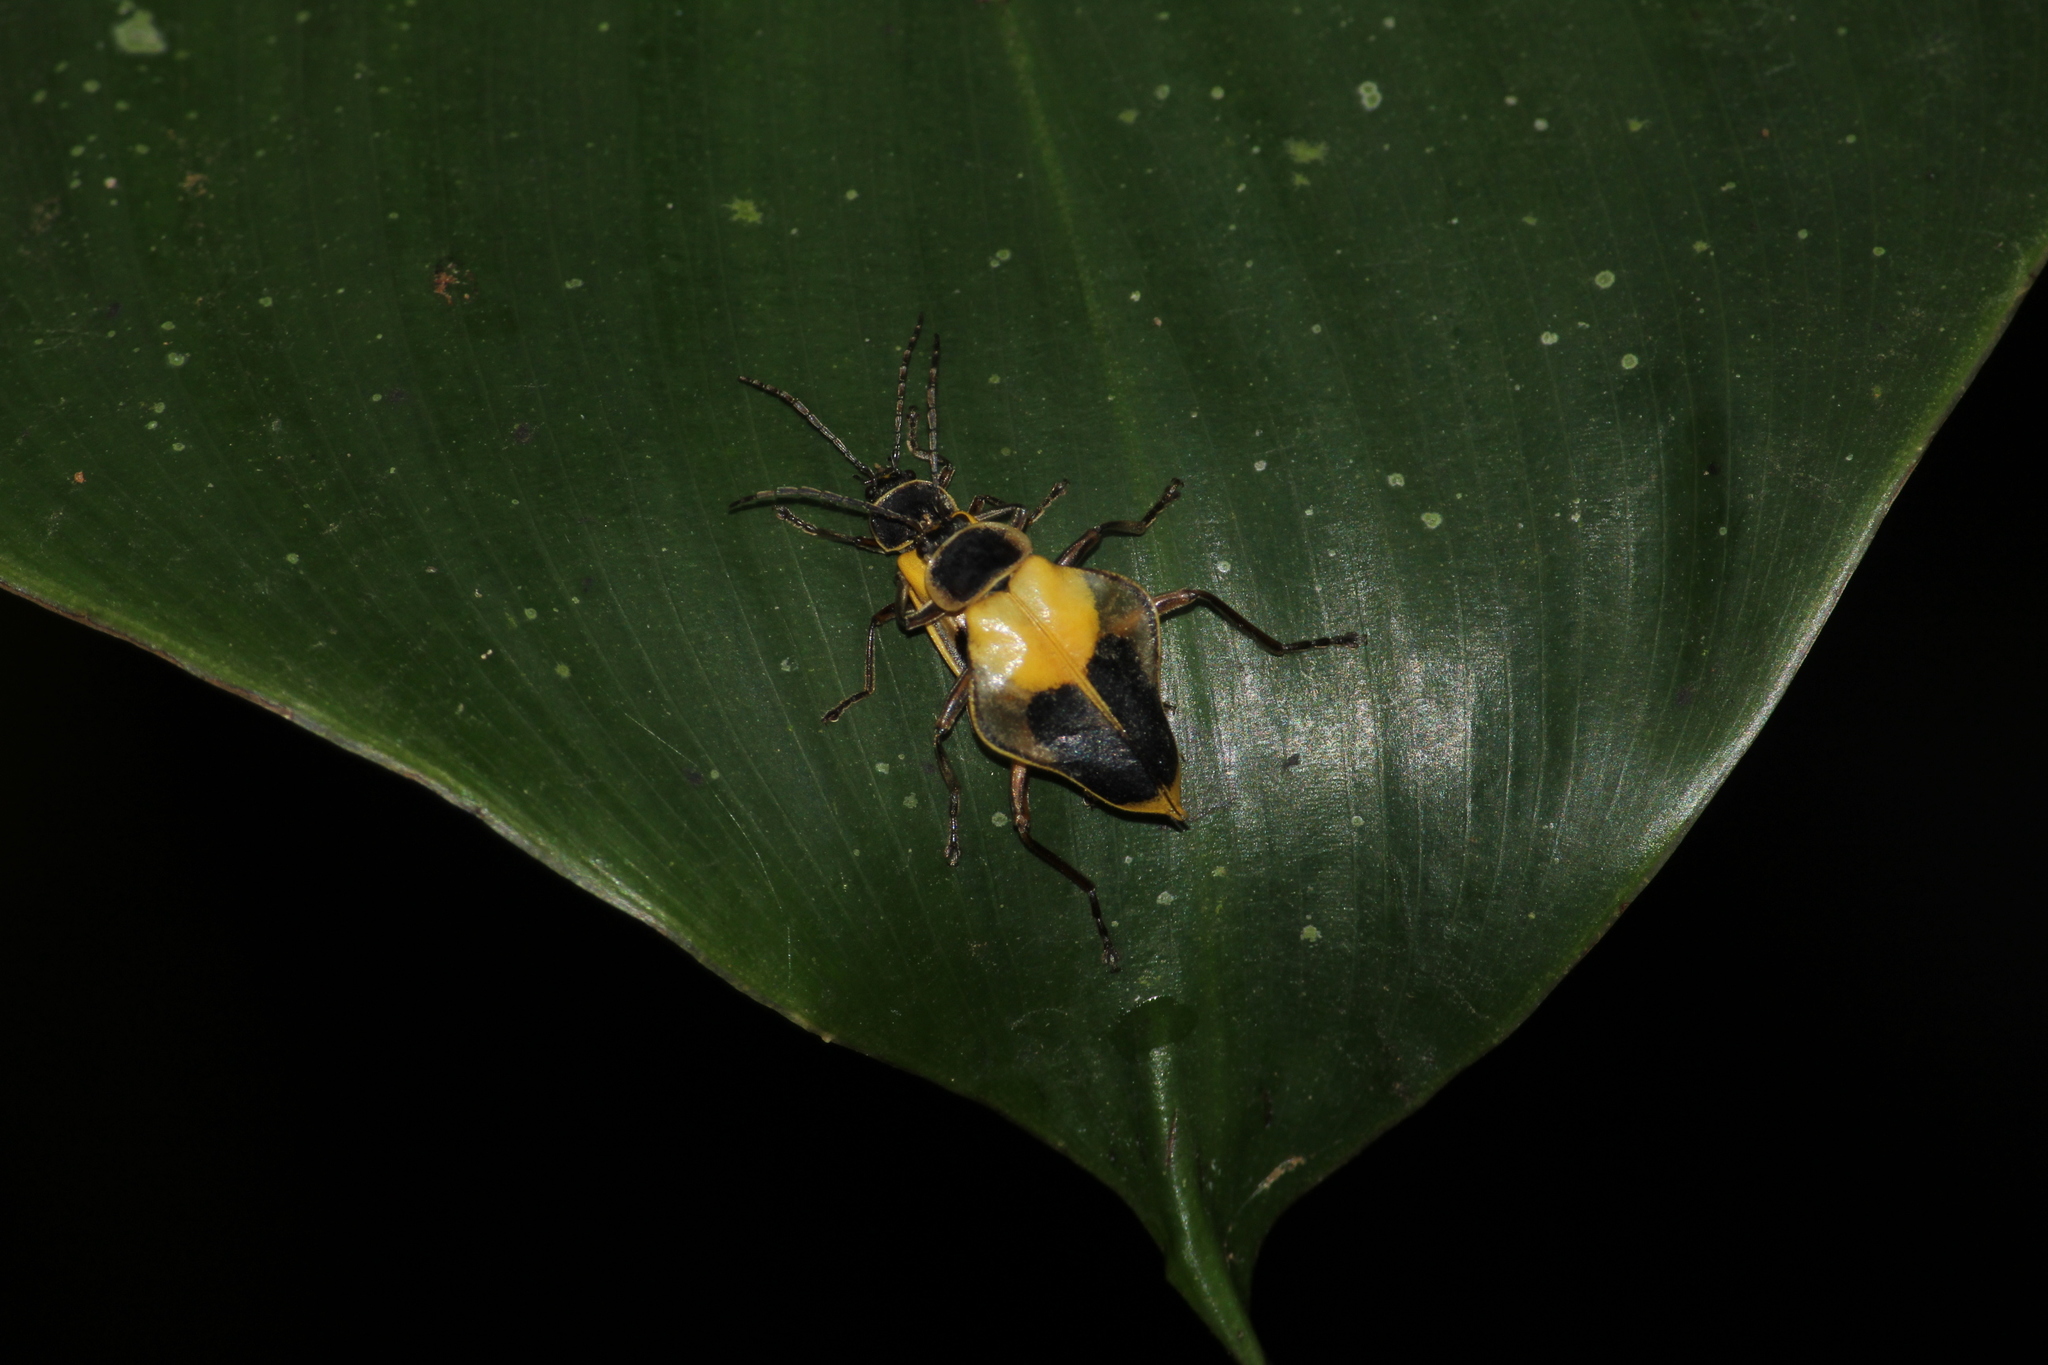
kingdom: Animalia
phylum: Arthropoda
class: Insecta
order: Coleoptera
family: Cantharidae
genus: Chauliognathus
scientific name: Chauliognathus
